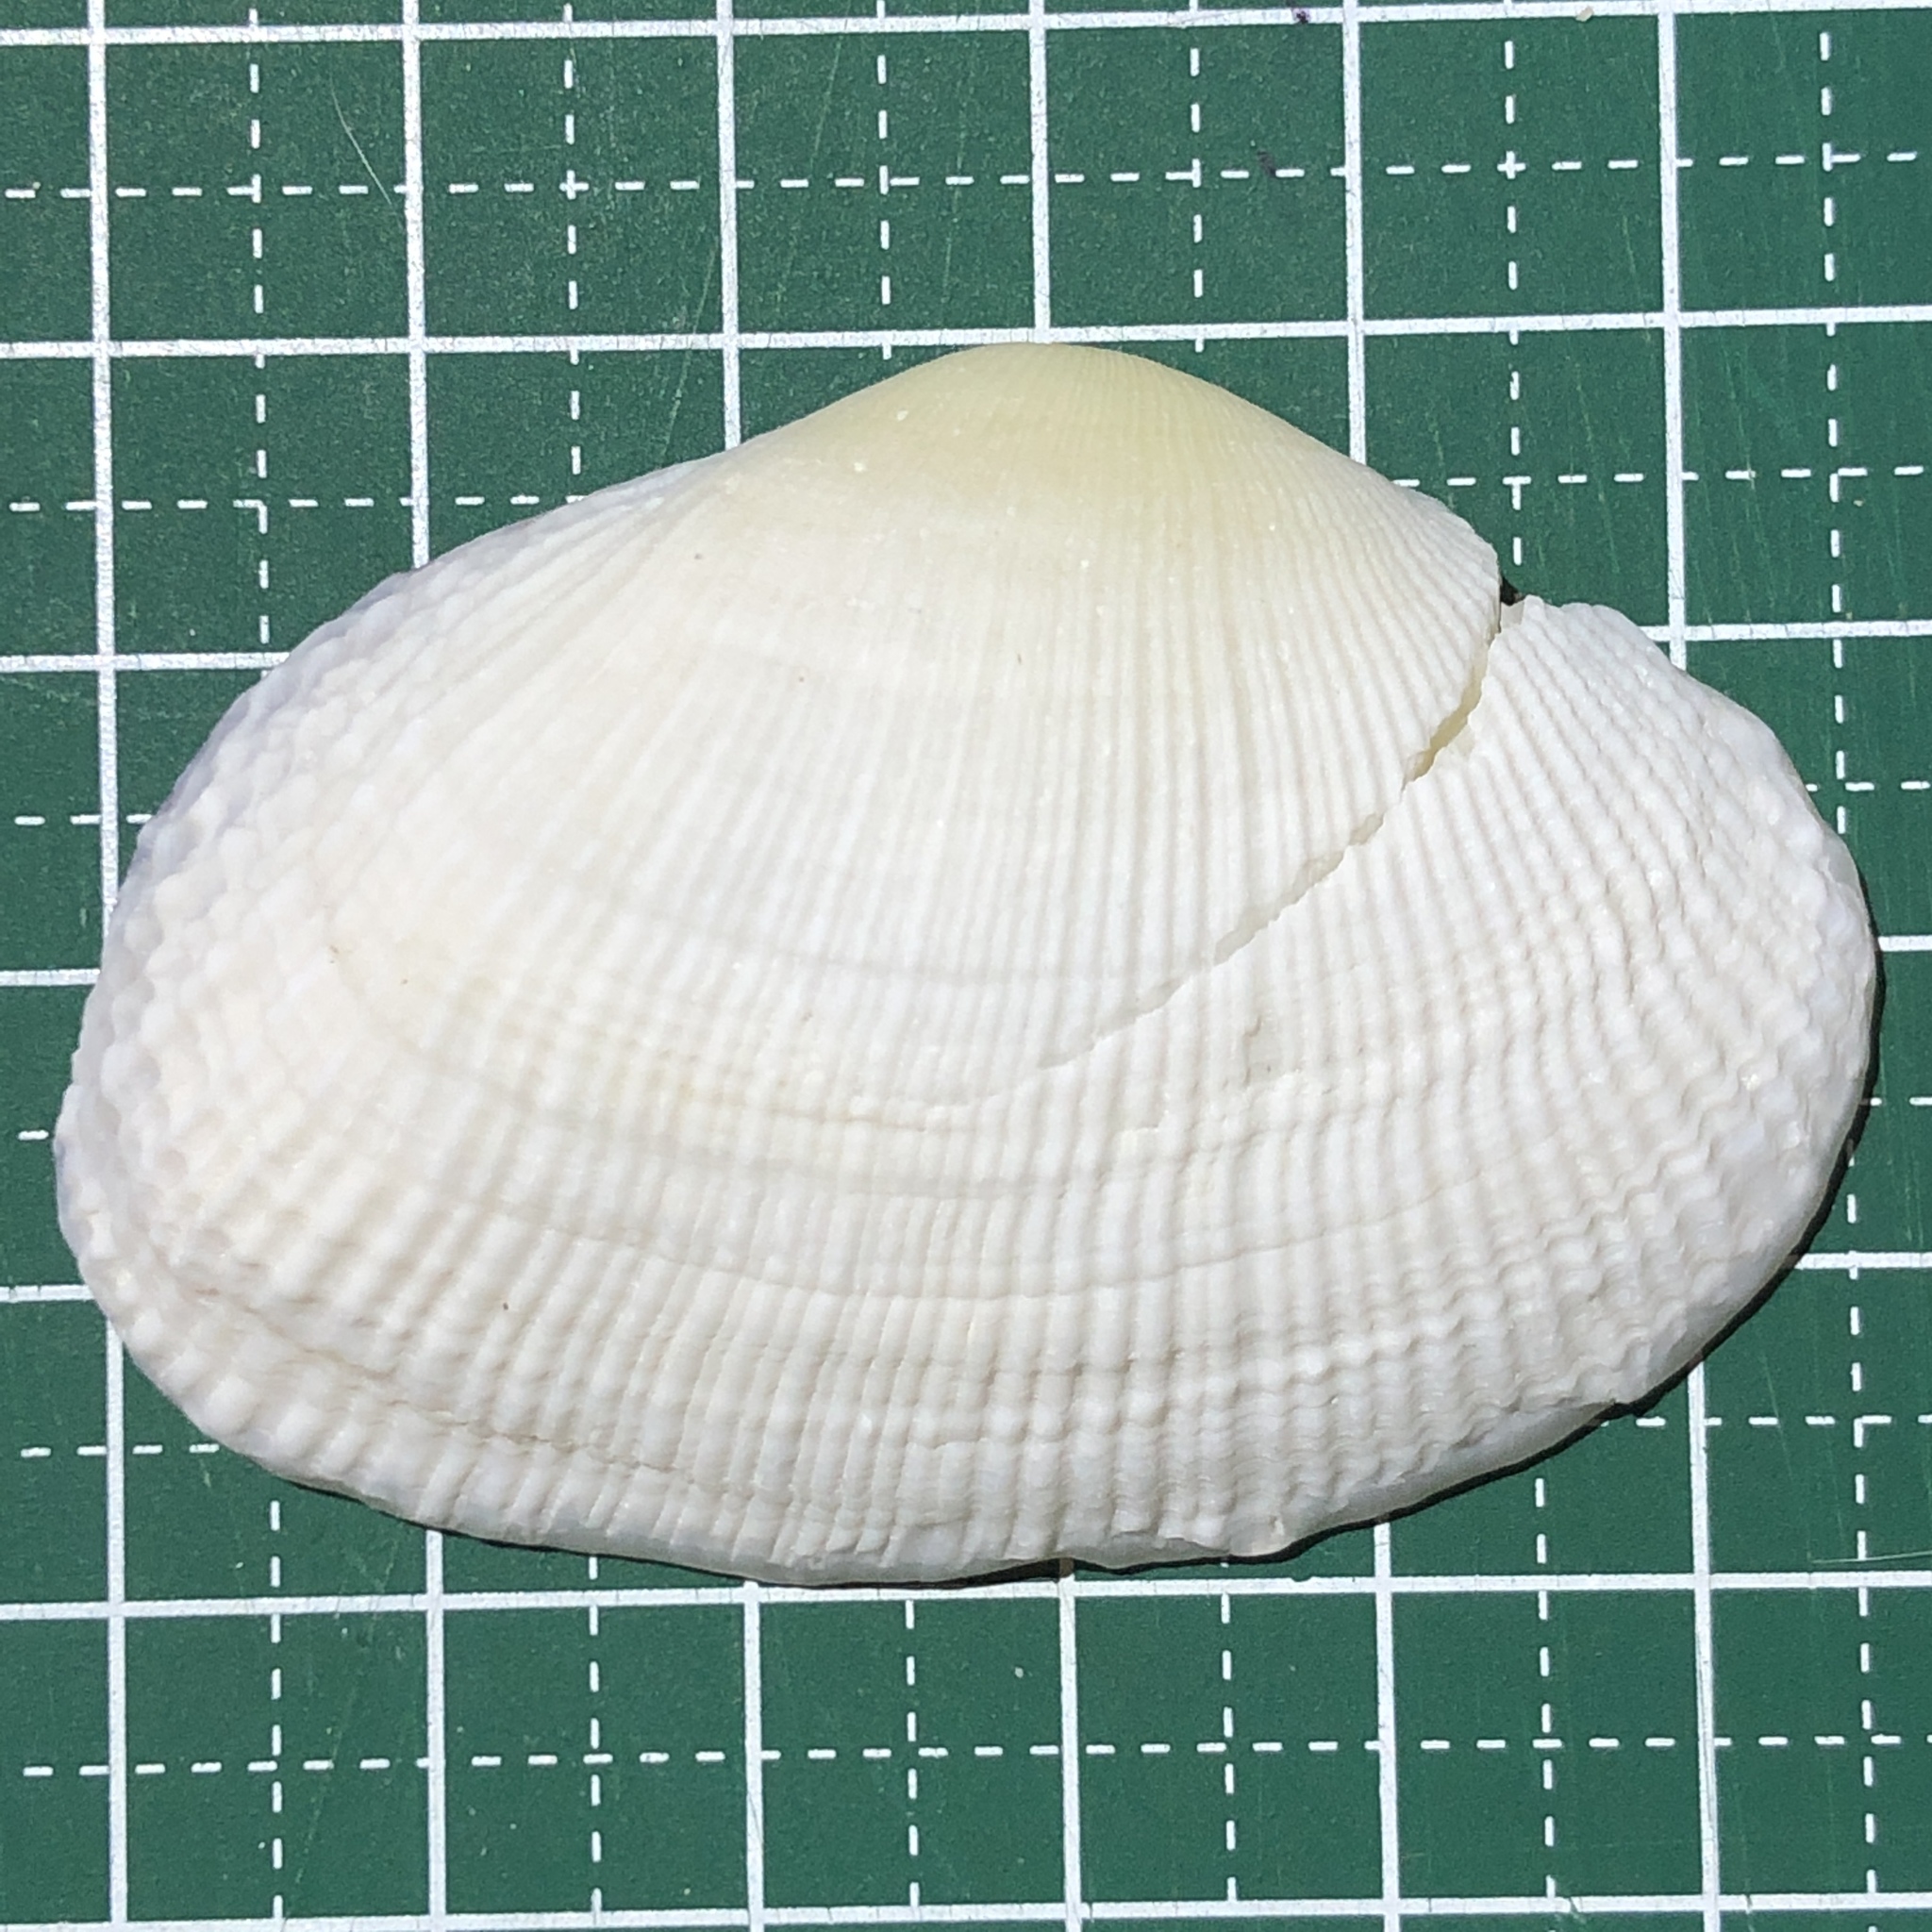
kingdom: Animalia
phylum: Mollusca
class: Bivalvia
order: Cardiida
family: Psammobiidae
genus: Asaphis
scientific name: Asaphis violascens
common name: Pacific asaphis
